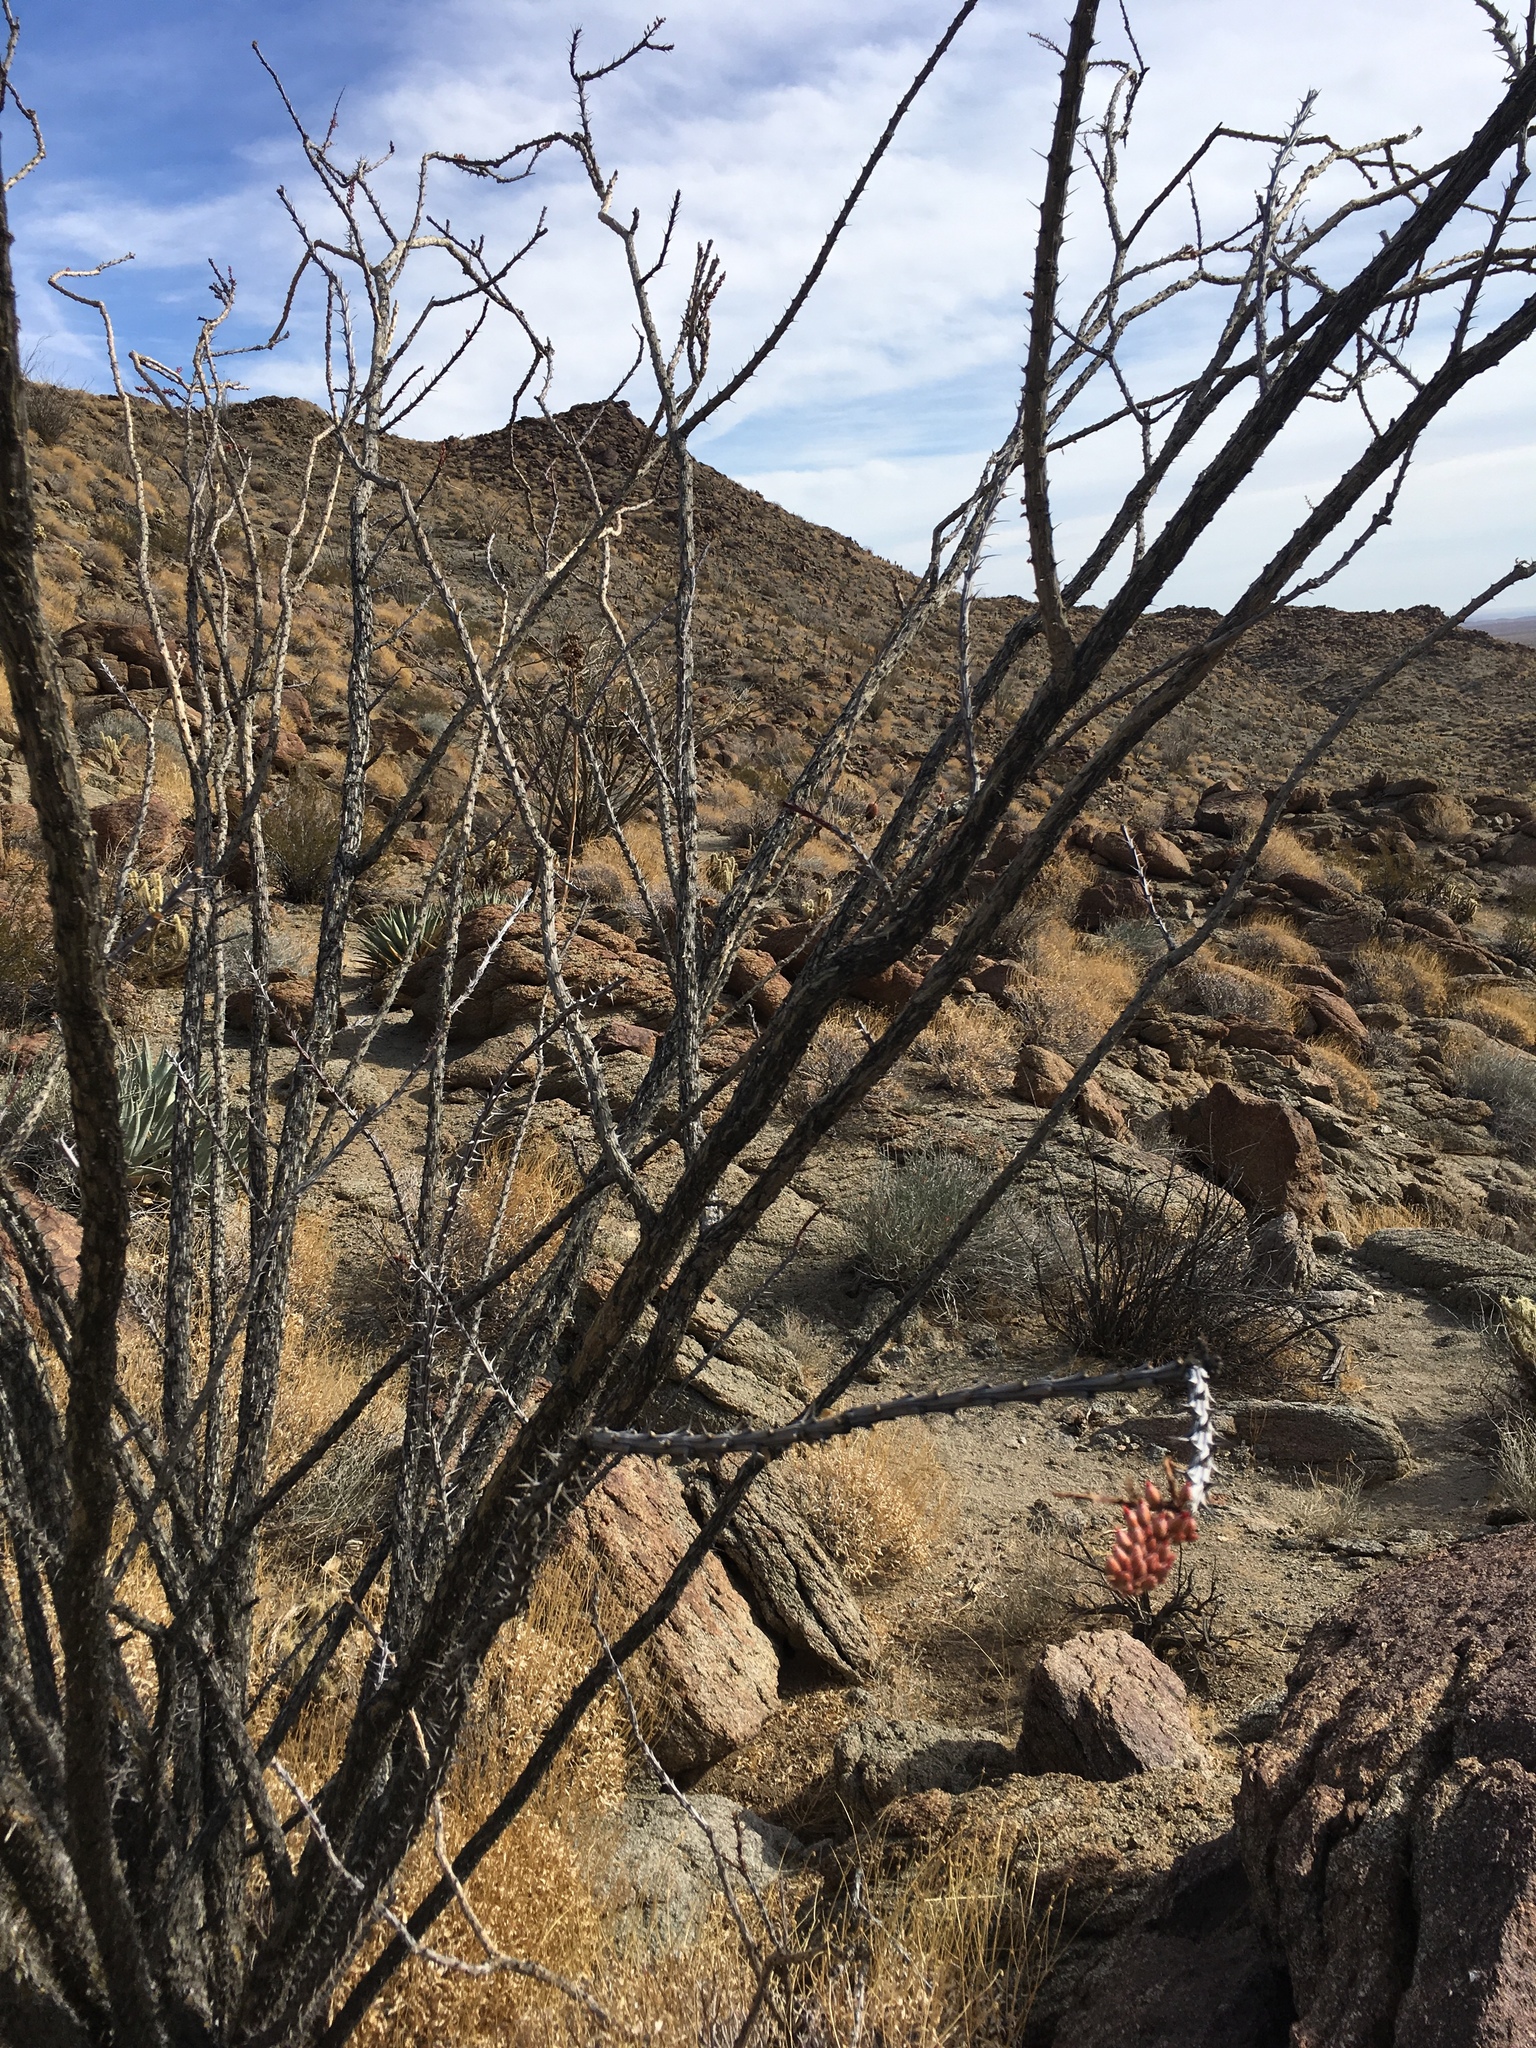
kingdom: Plantae
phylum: Tracheophyta
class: Magnoliopsida
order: Ericales
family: Fouquieriaceae
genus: Fouquieria
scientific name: Fouquieria splendens
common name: Vine-cactus
